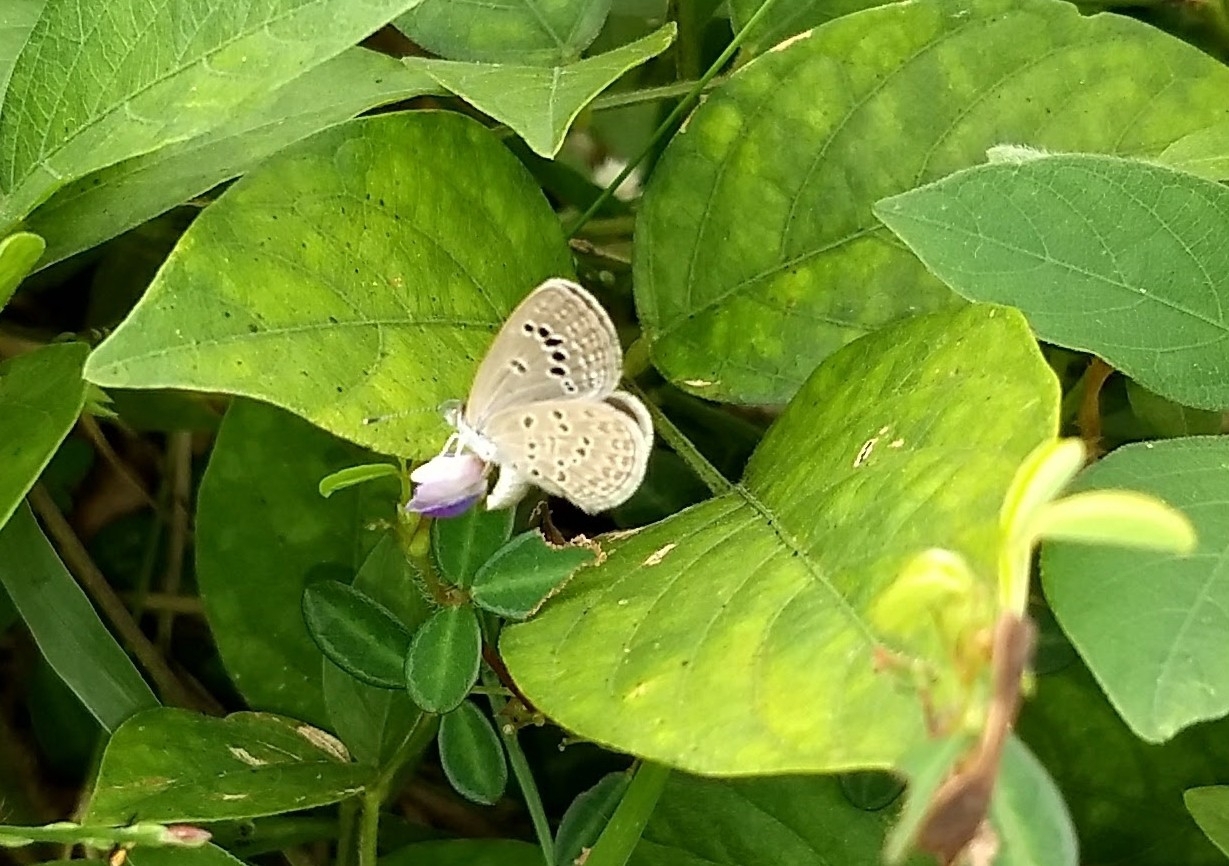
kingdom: Animalia
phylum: Arthropoda
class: Insecta
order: Lepidoptera
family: Lycaenidae
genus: Zizina
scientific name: Zizina otis
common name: Lesser grass blue
